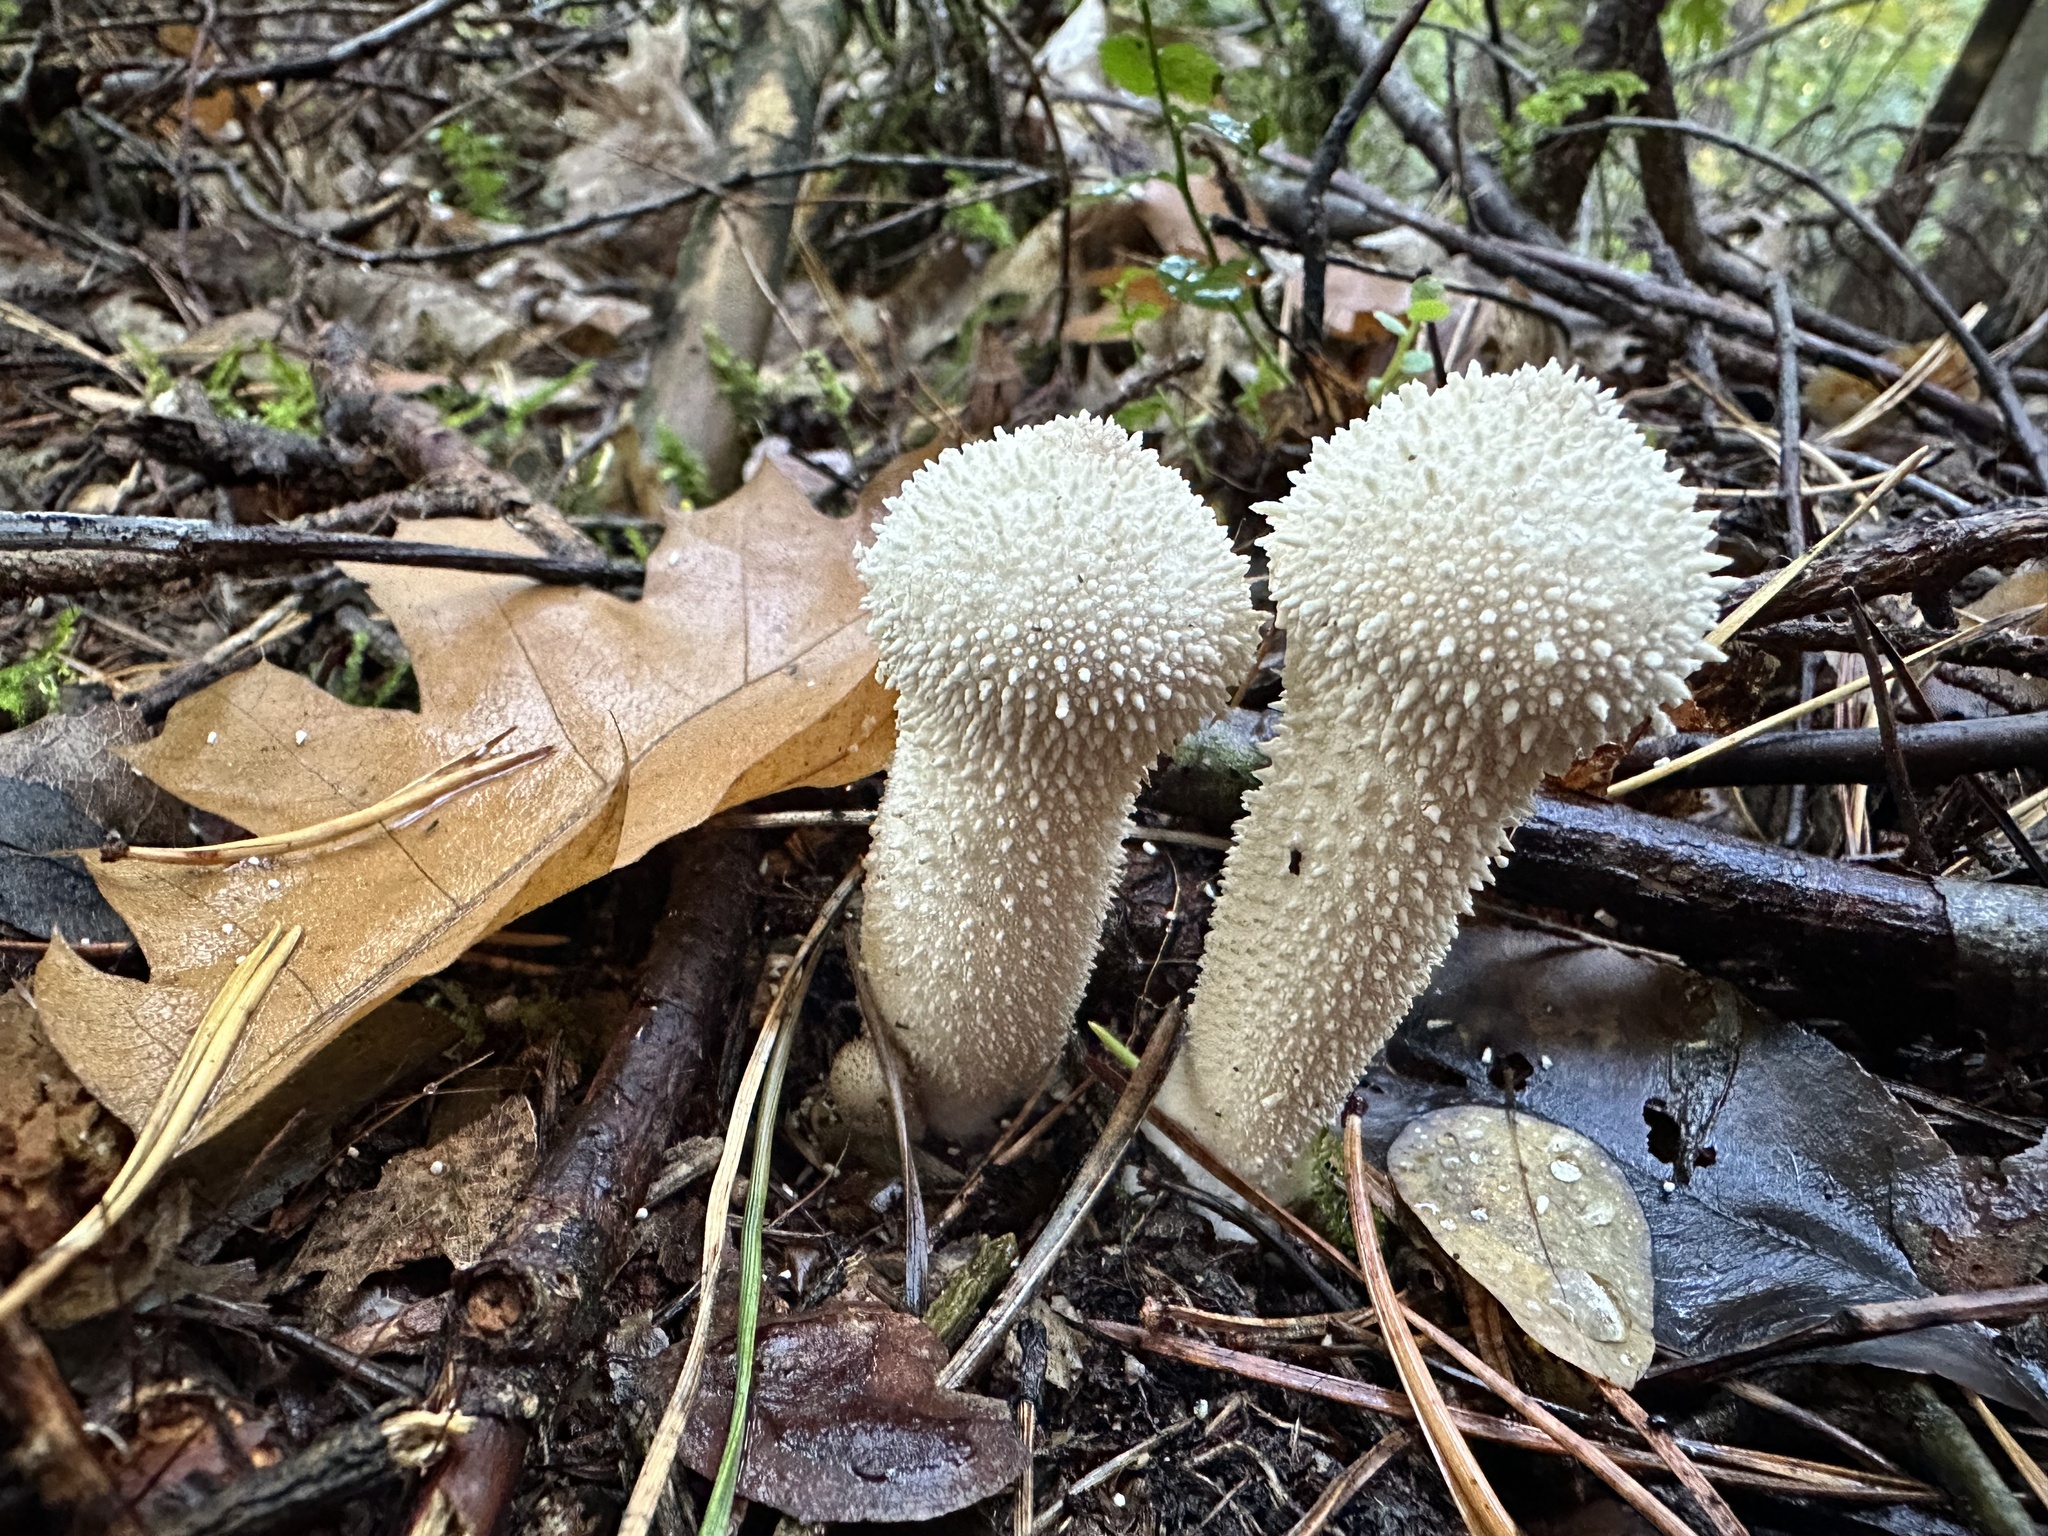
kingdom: Fungi
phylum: Basidiomycota
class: Agaricomycetes
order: Agaricales
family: Lycoperdaceae
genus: Lycoperdon
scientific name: Lycoperdon perlatum
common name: Common puffball
